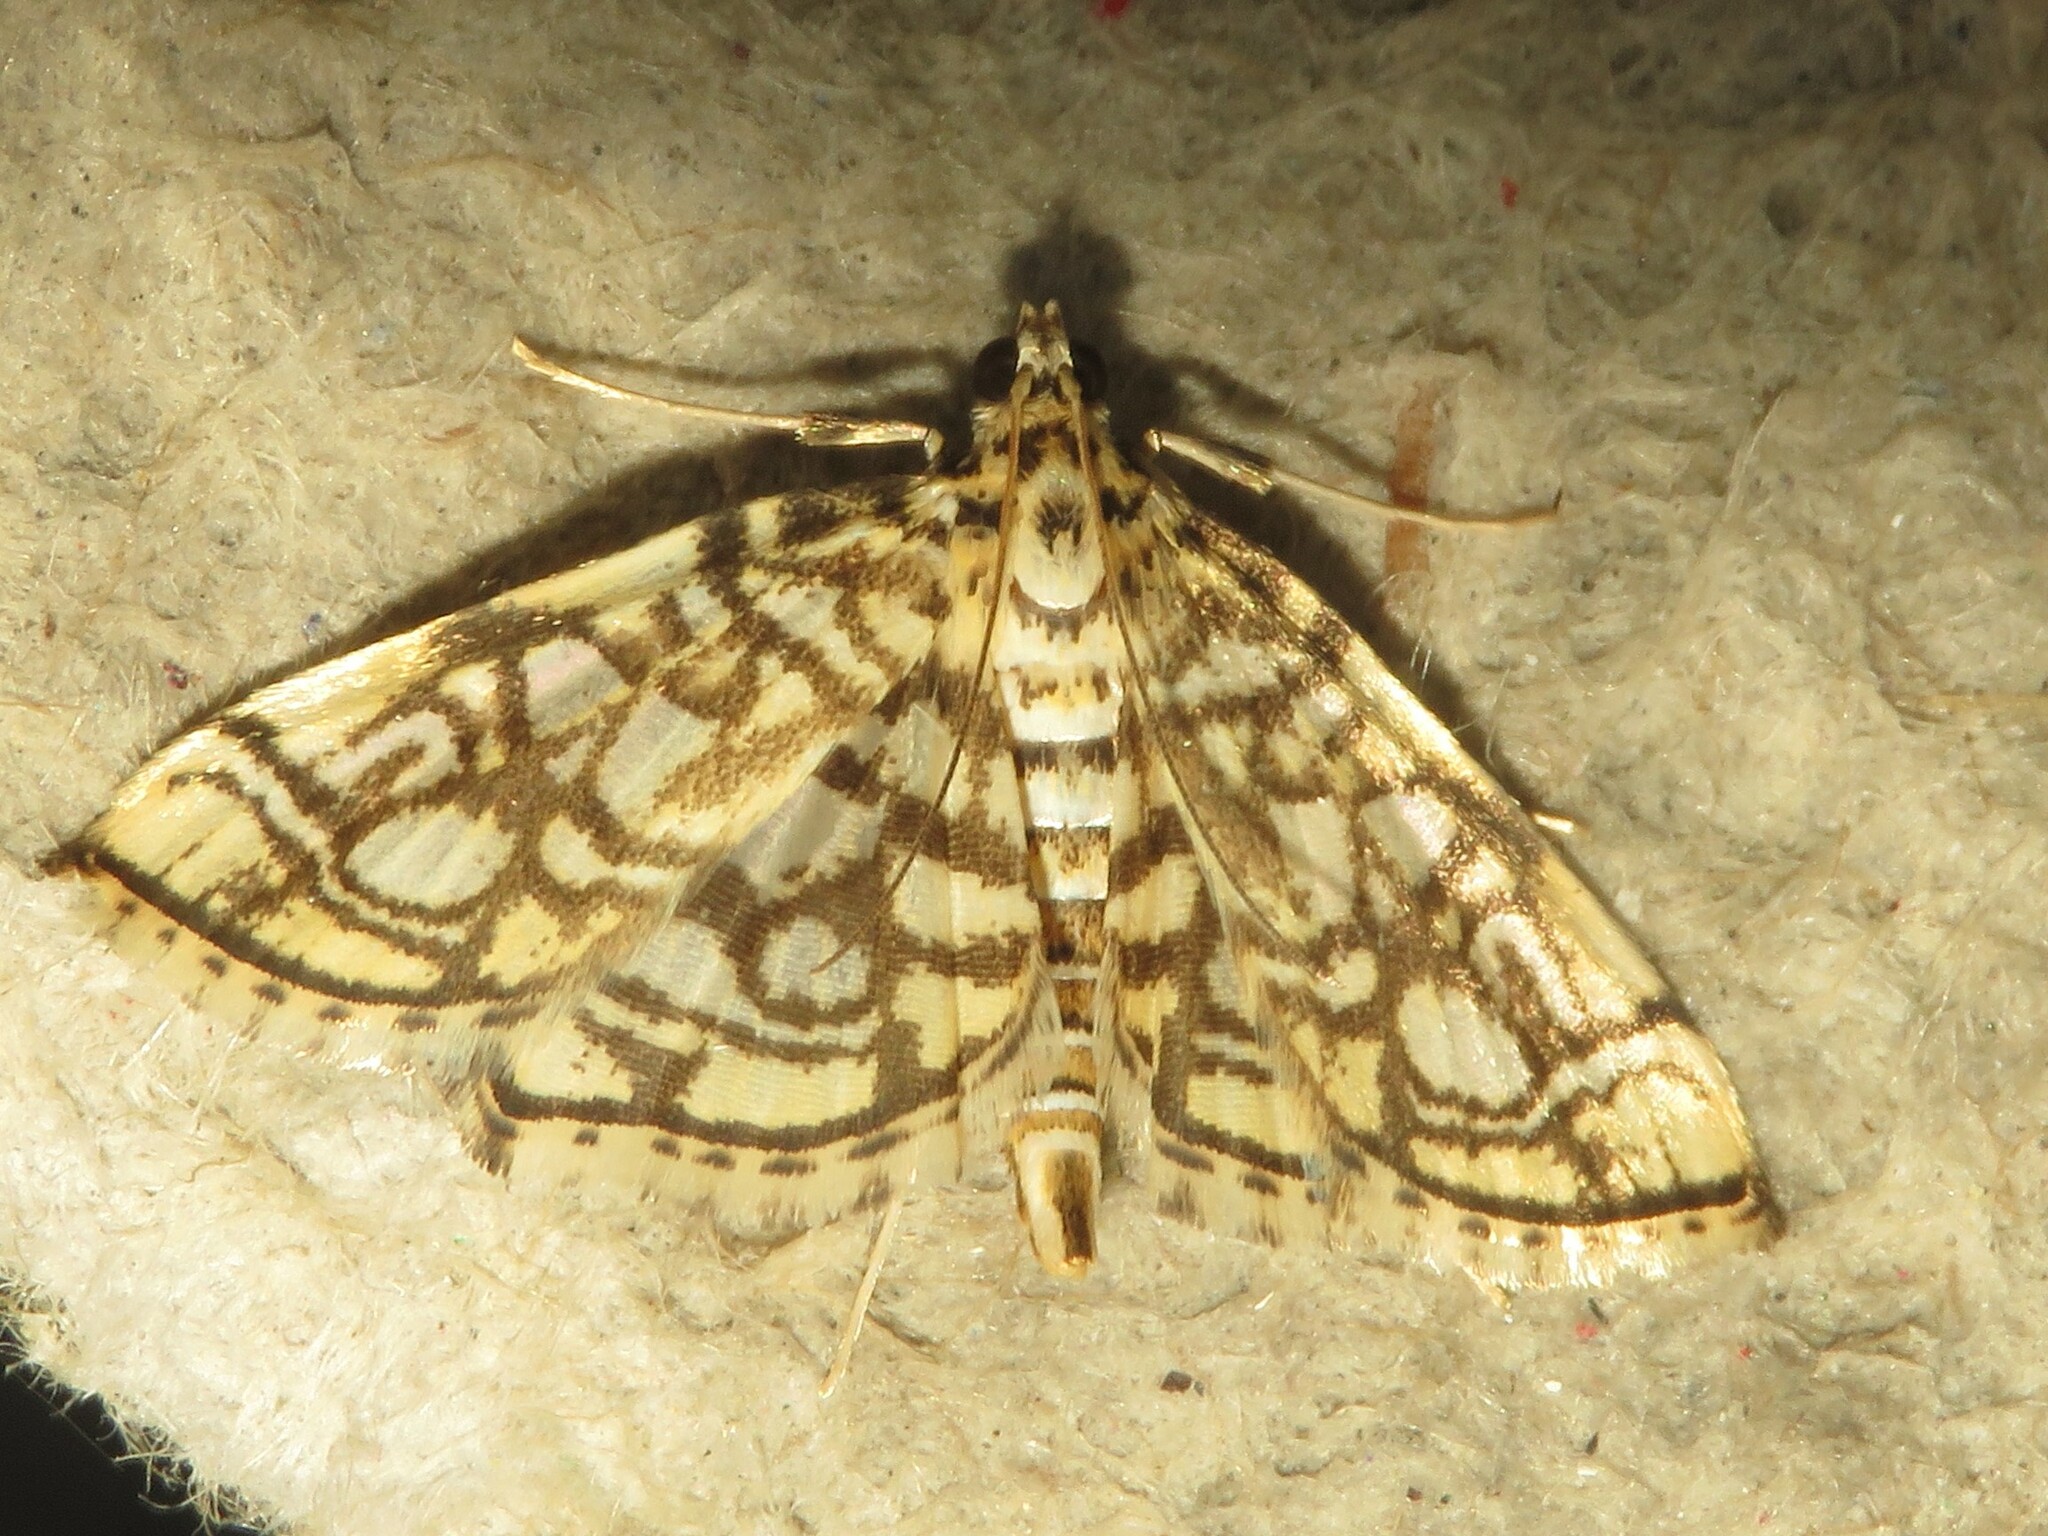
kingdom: Animalia
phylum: Arthropoda
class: Insecta
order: Lepidoptera
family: Crambidae
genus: Lygropia
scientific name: Lygropia rivulalis
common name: Bog lygropia moth
